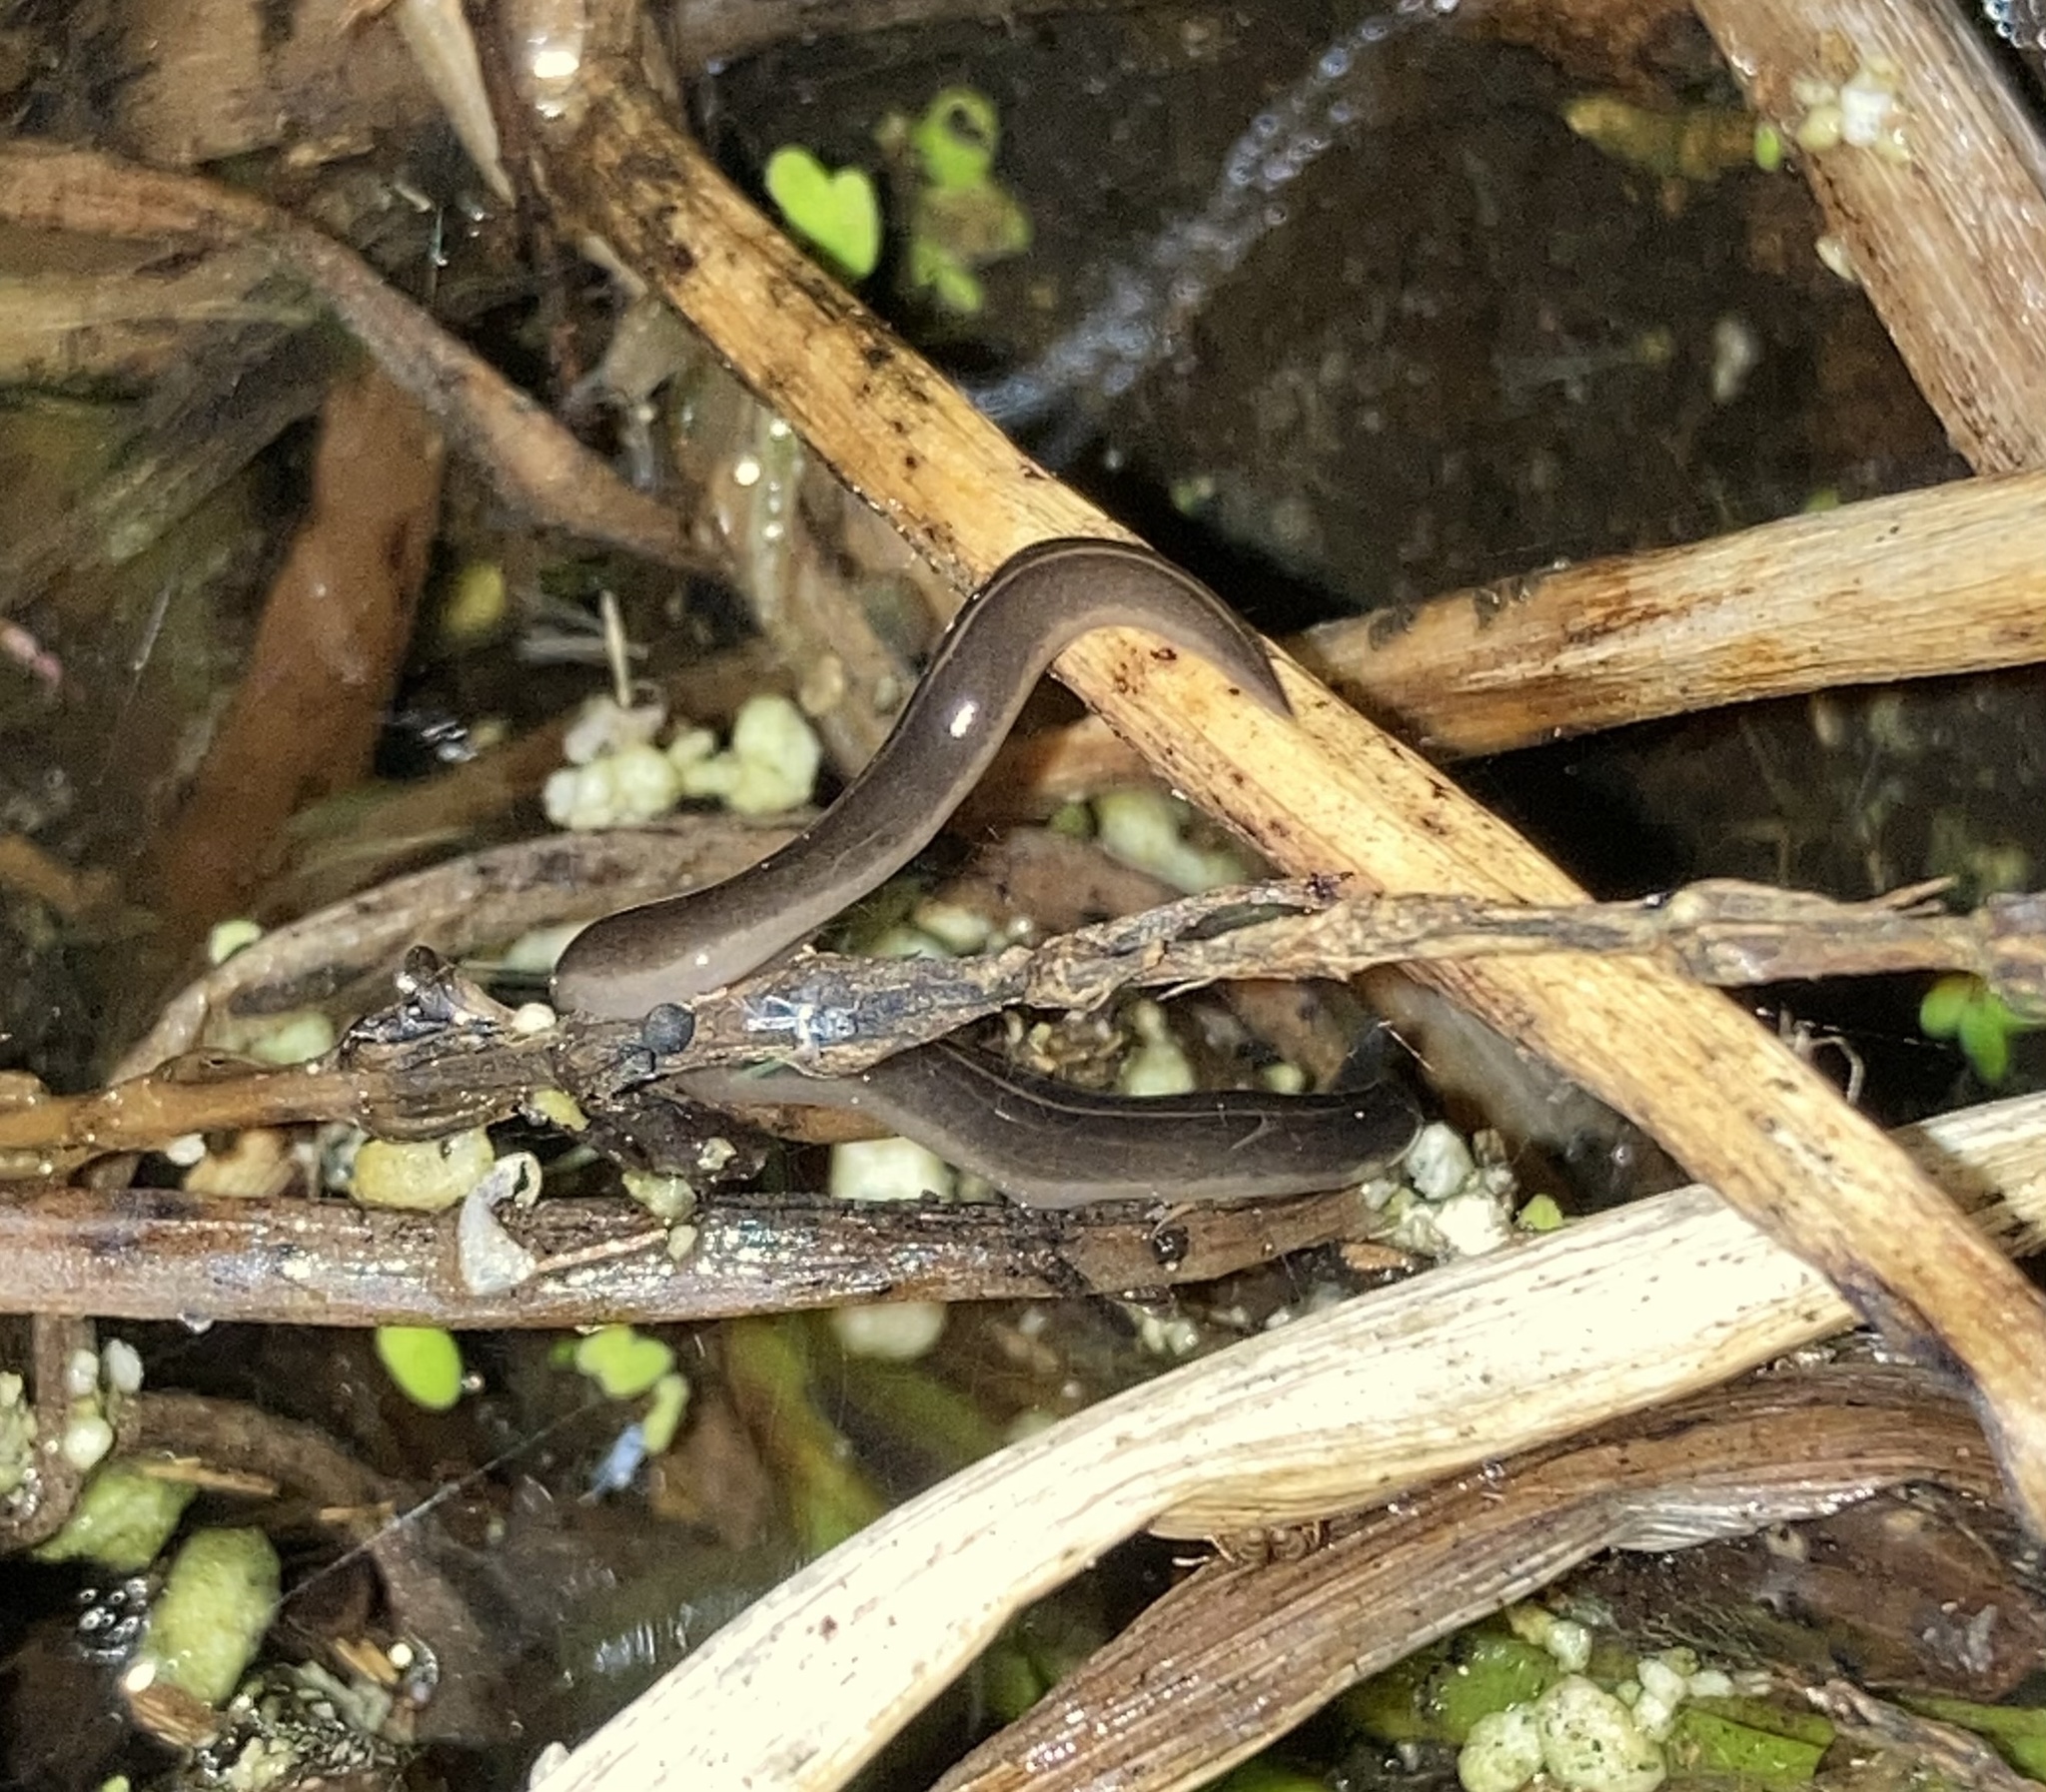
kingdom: Animalia
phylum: Platyhelminthes
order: Tricladida
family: Geoplanidae
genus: Platydemus
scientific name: Platydemus manokwari
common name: New guinea flatworm
